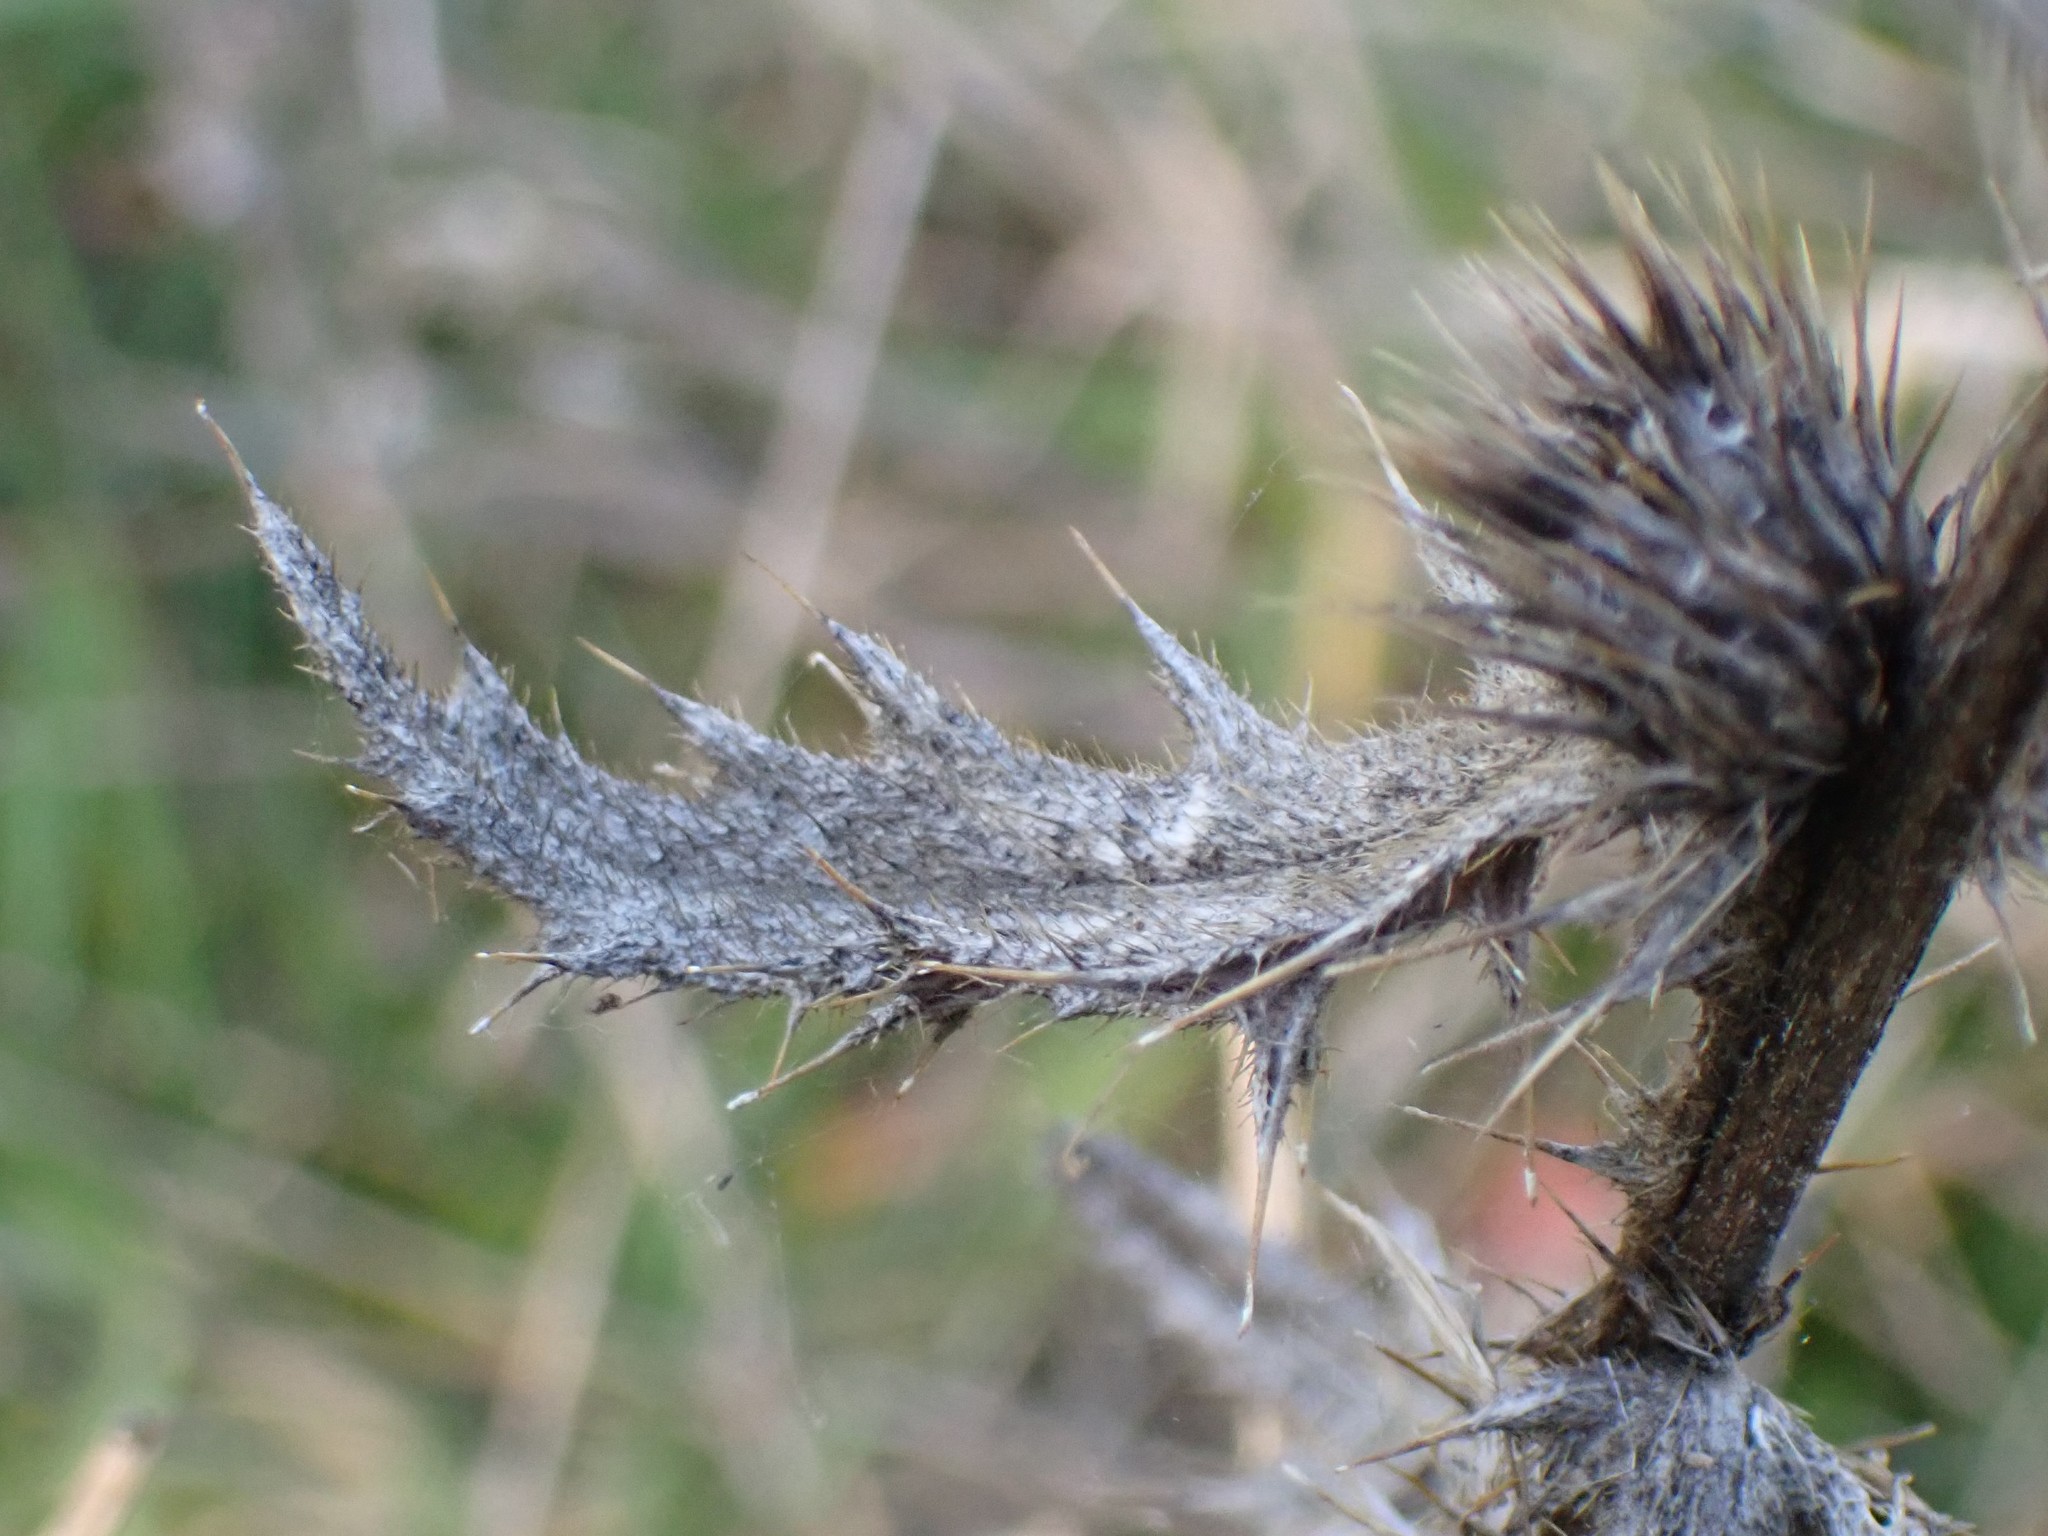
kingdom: Plantae
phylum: Tracheophyta
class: Magnoliopsida
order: Asterales
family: Asteraceae
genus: Cirsium
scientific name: Cirsium vulgare
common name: Bull thistle
